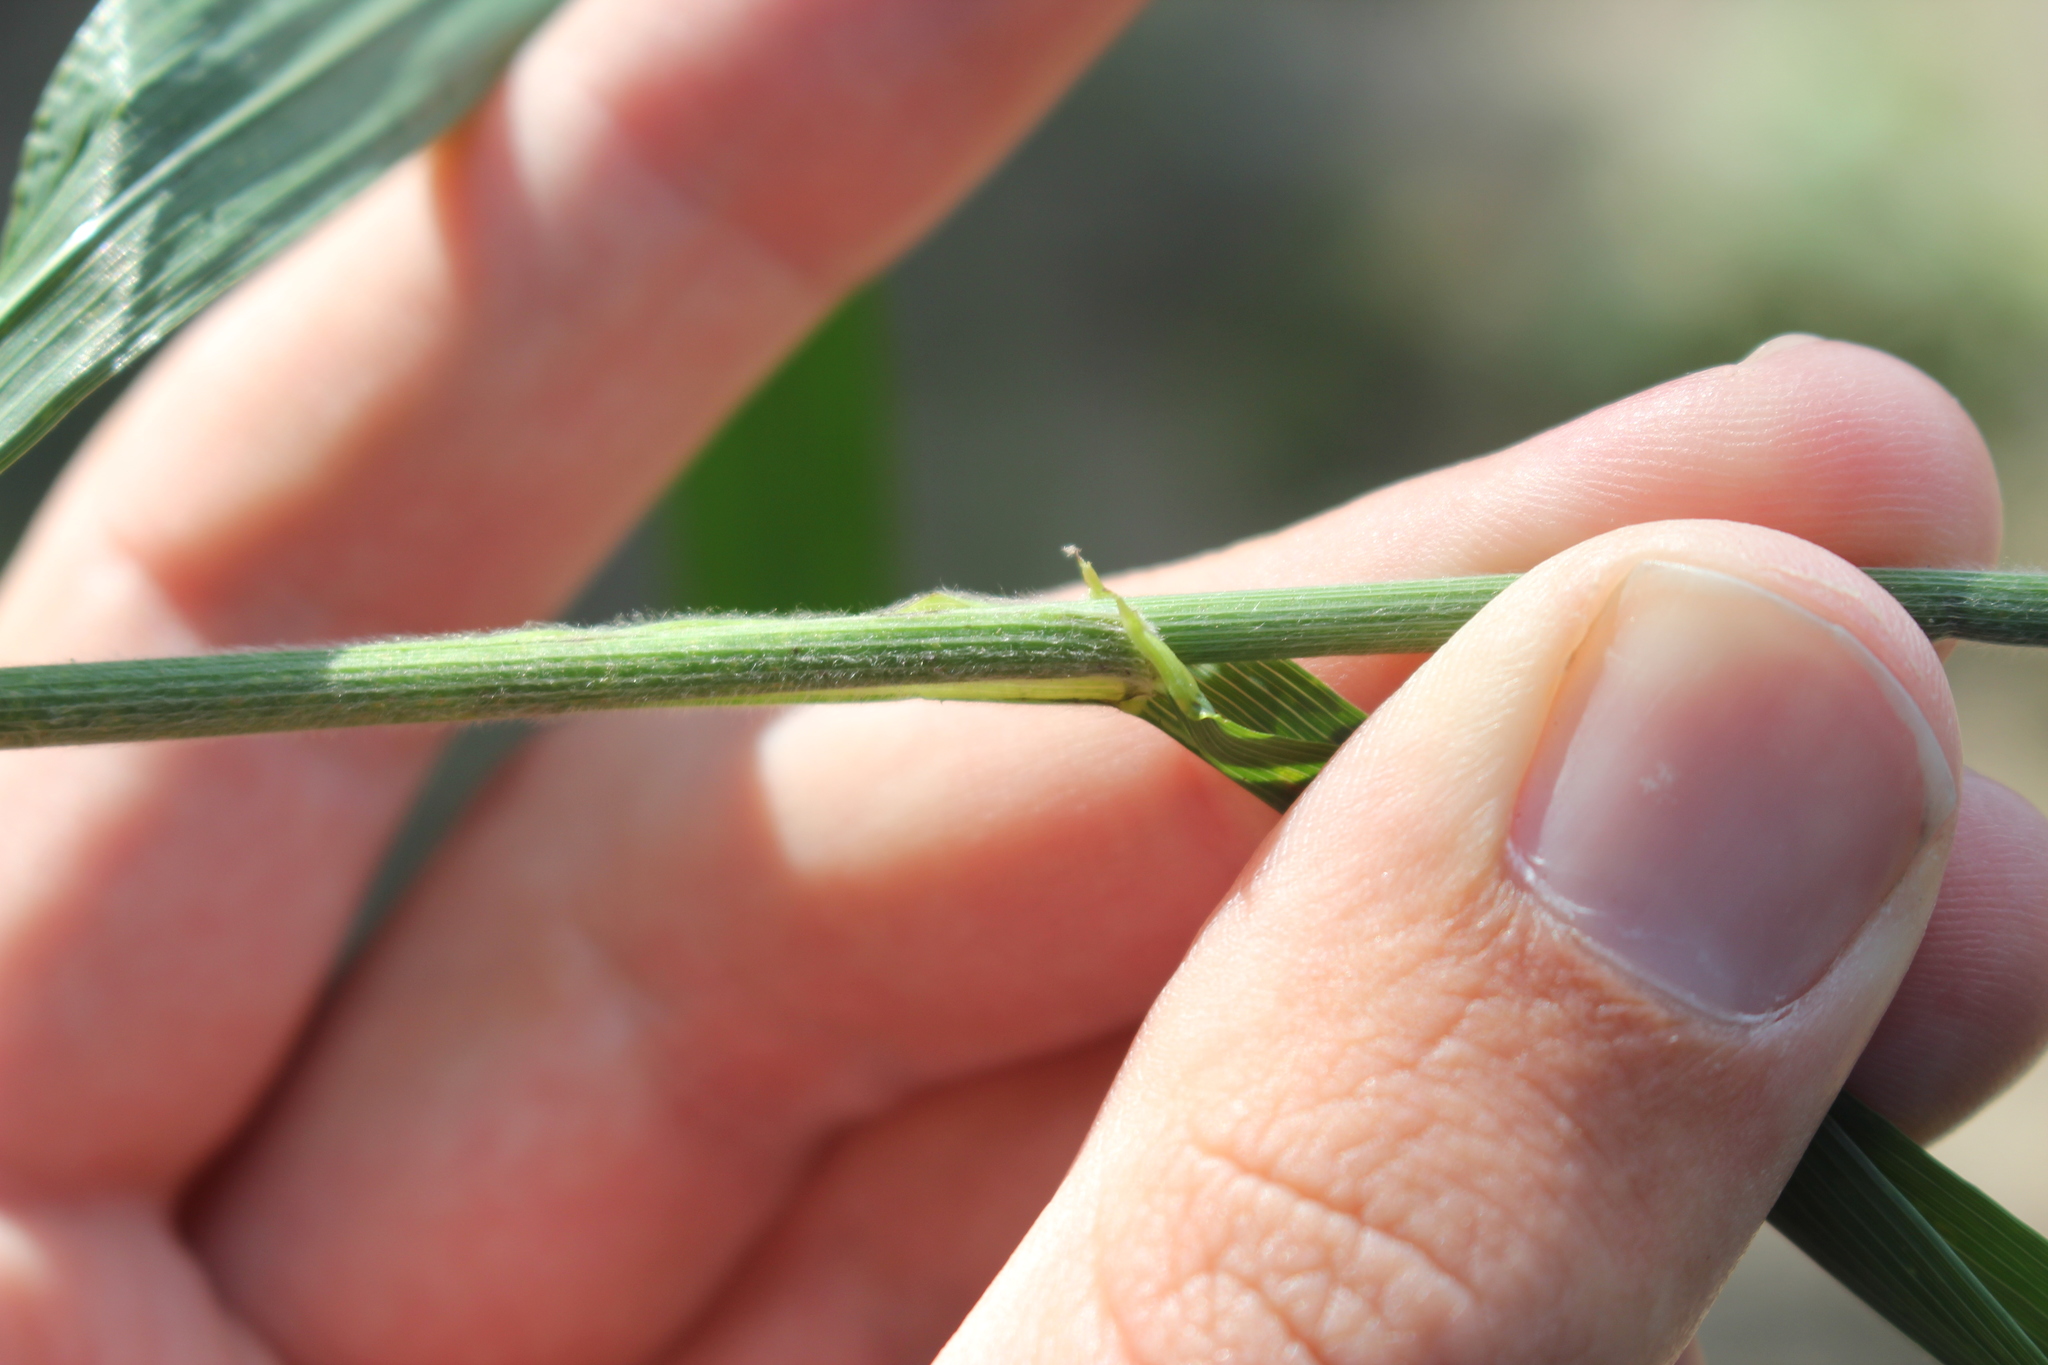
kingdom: Plantae
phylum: Tracheophyta
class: Liliopsida
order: Poales
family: Poaceae
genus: Bromus
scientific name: Bromus latiglumis
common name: Broad-glumed brome
